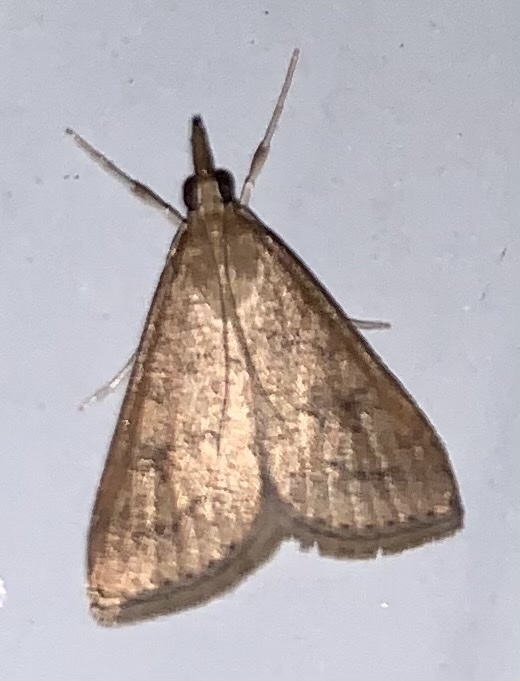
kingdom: Animalia
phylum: Arthropoda
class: Insecta
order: Lepidoptera
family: Crambidae
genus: Udea
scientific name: Udea rubigalis
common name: Celery leaftier moth
